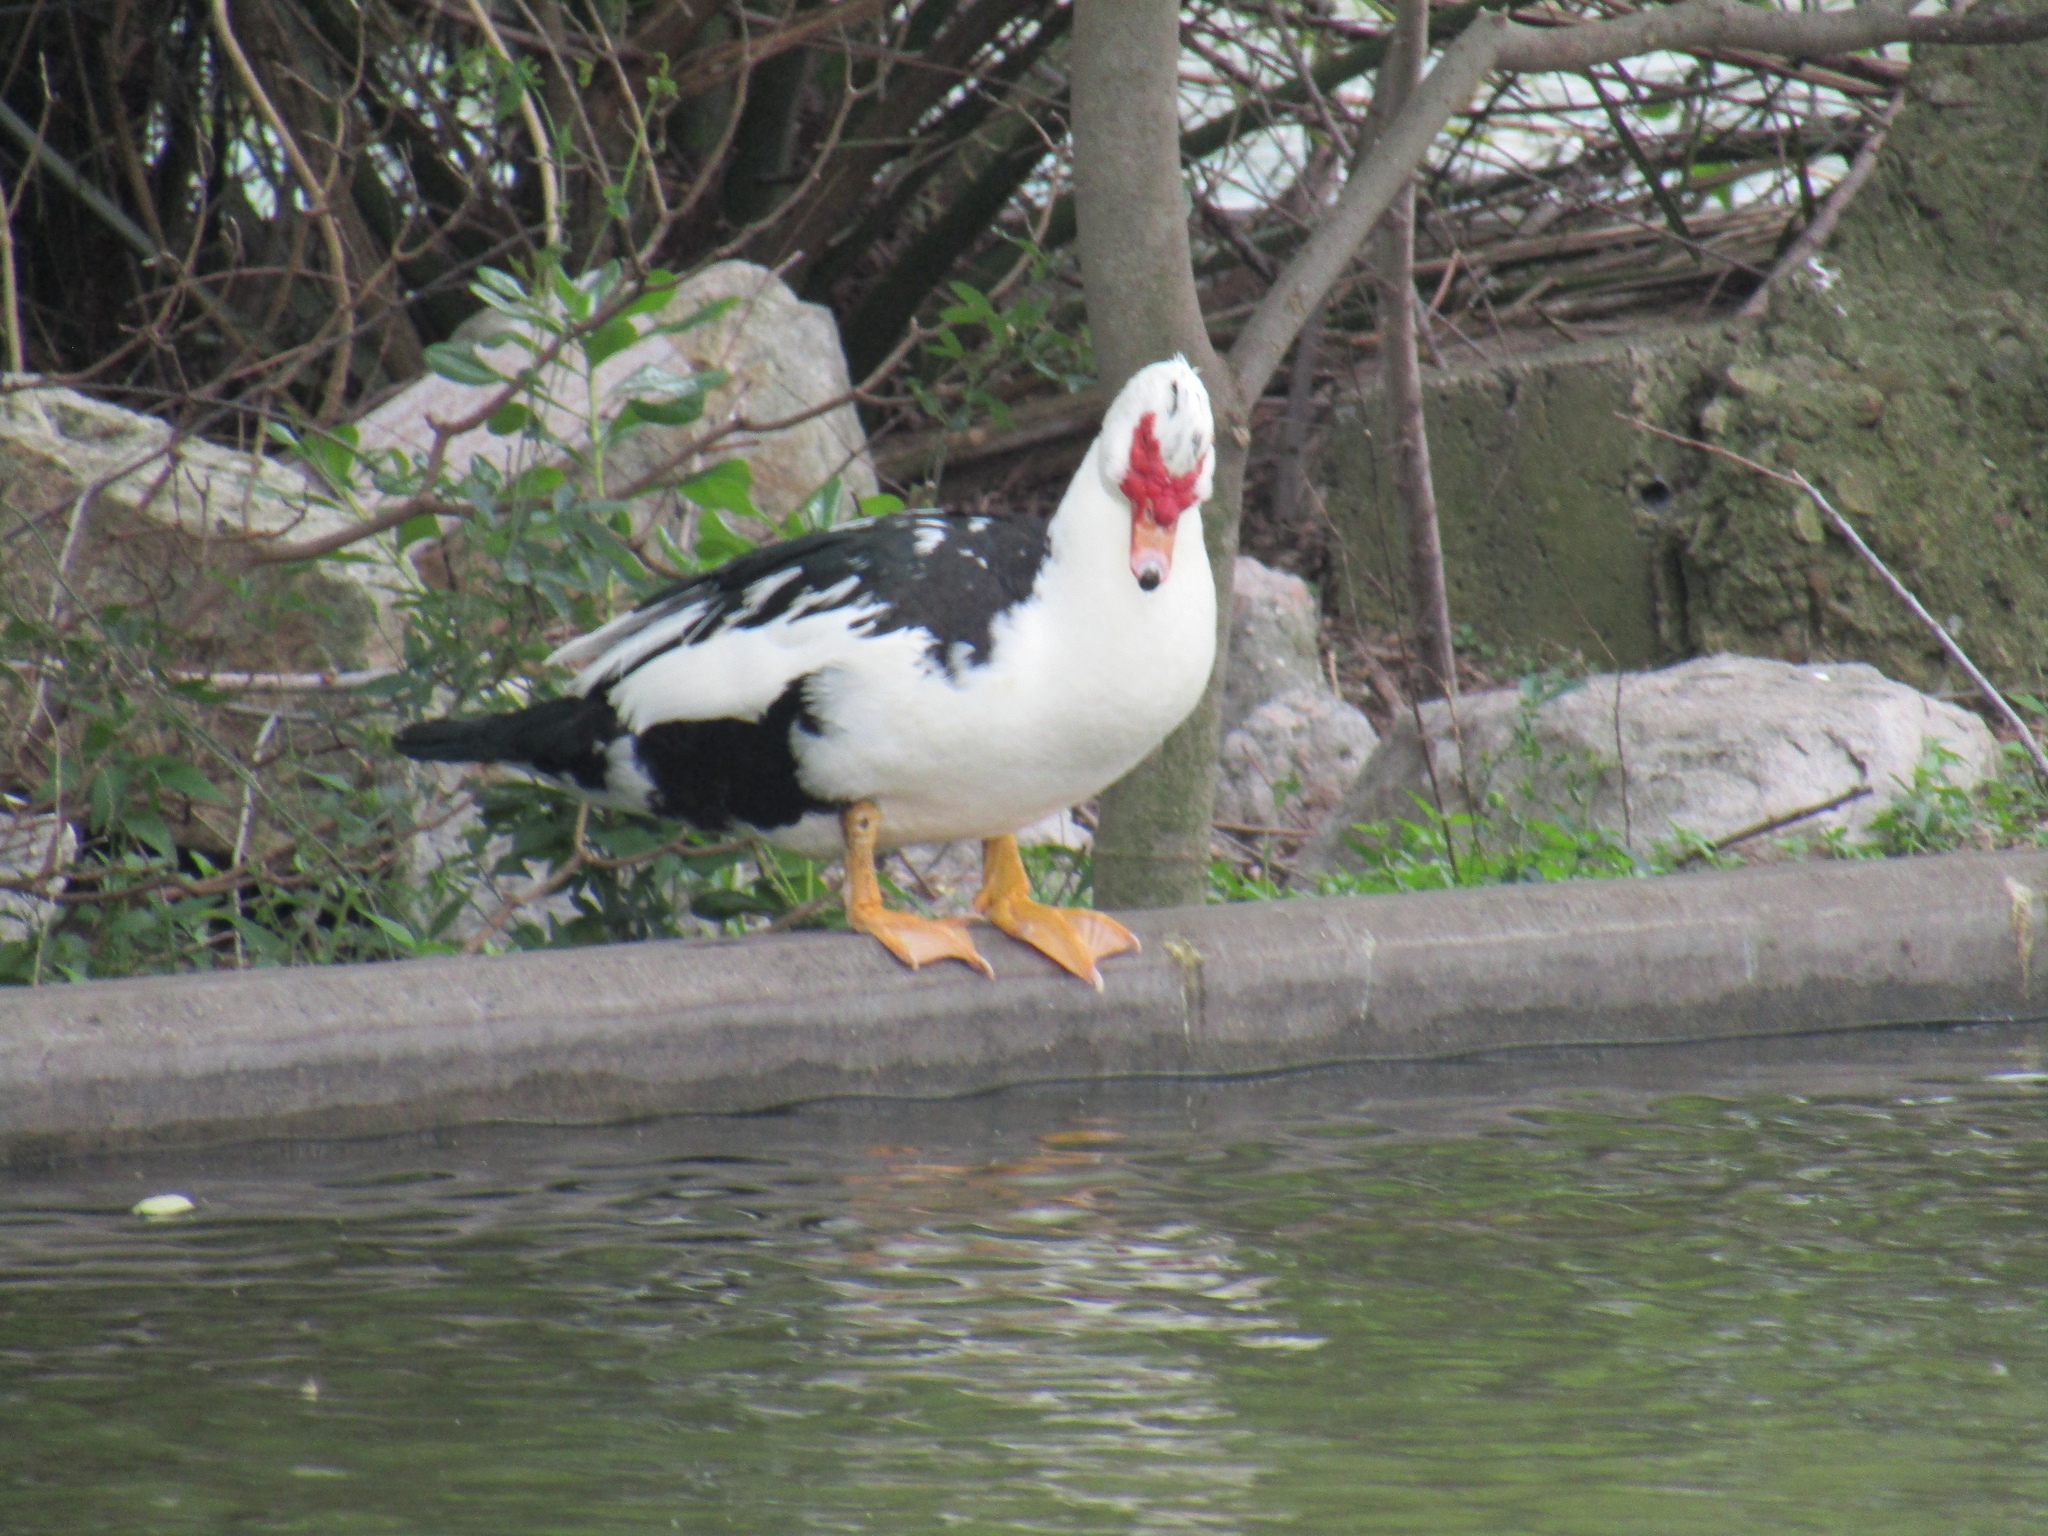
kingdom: Animalia
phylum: Chordata
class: Aves
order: Anseriformes
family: Anatidae
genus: Cairina
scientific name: Cairina moschata
